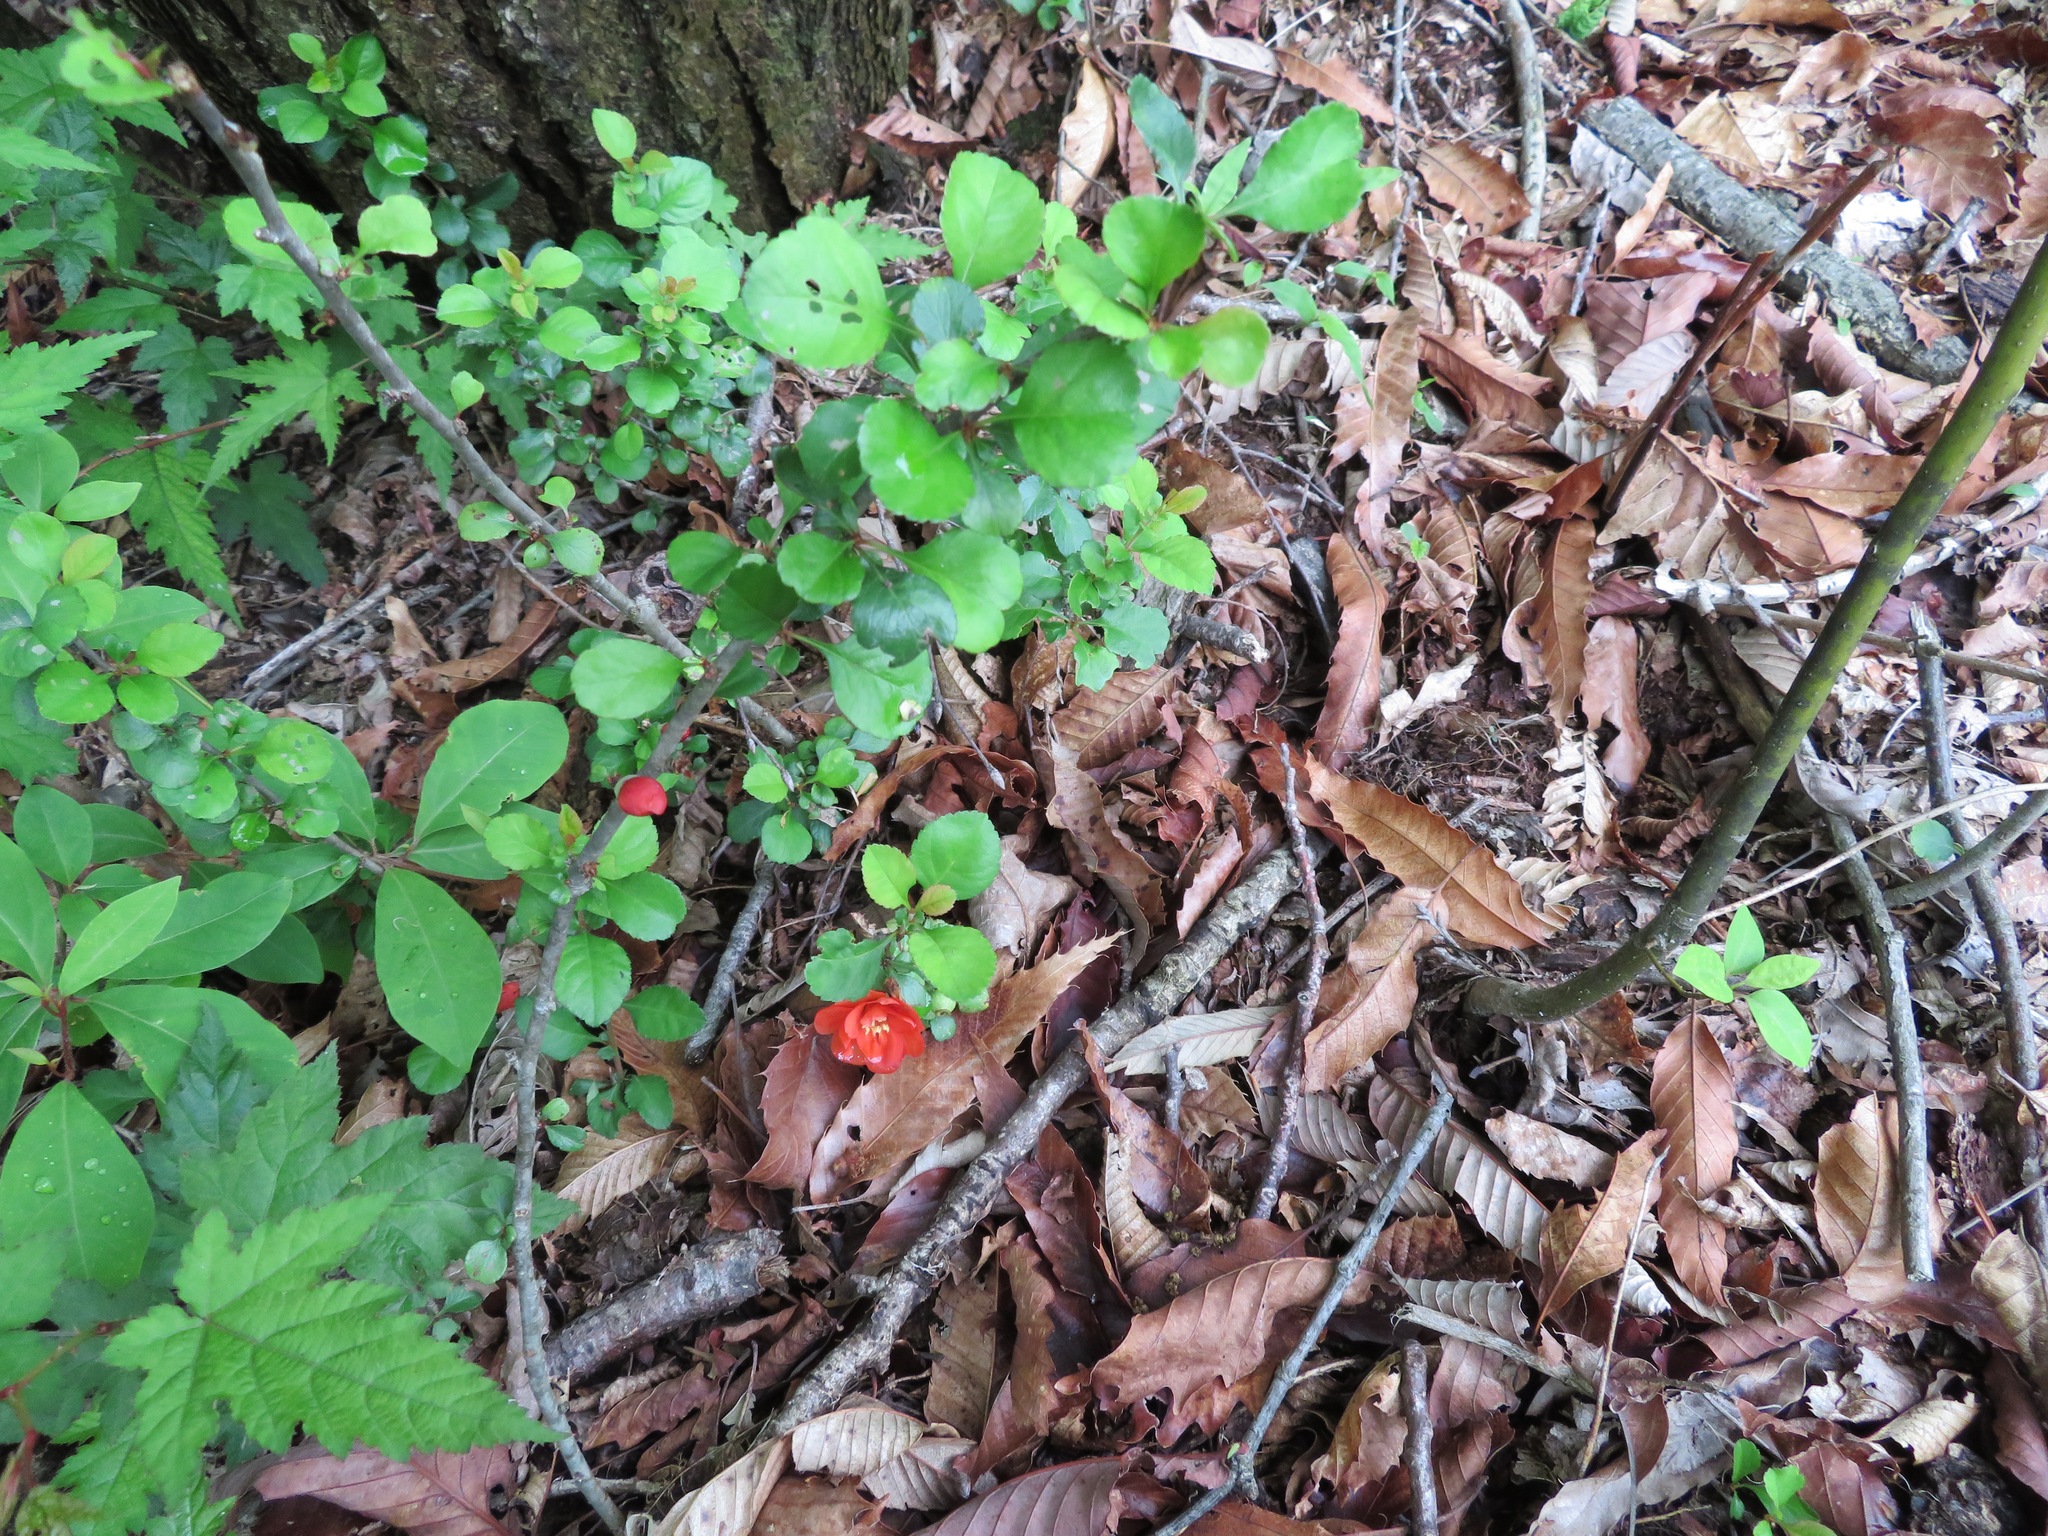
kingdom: Plantae
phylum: Tracheophyta
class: Magnoliopsida
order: Rosales
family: Rosaceae
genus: Chaenomeles
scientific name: Chaenomeles japonica
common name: Japanese quince
